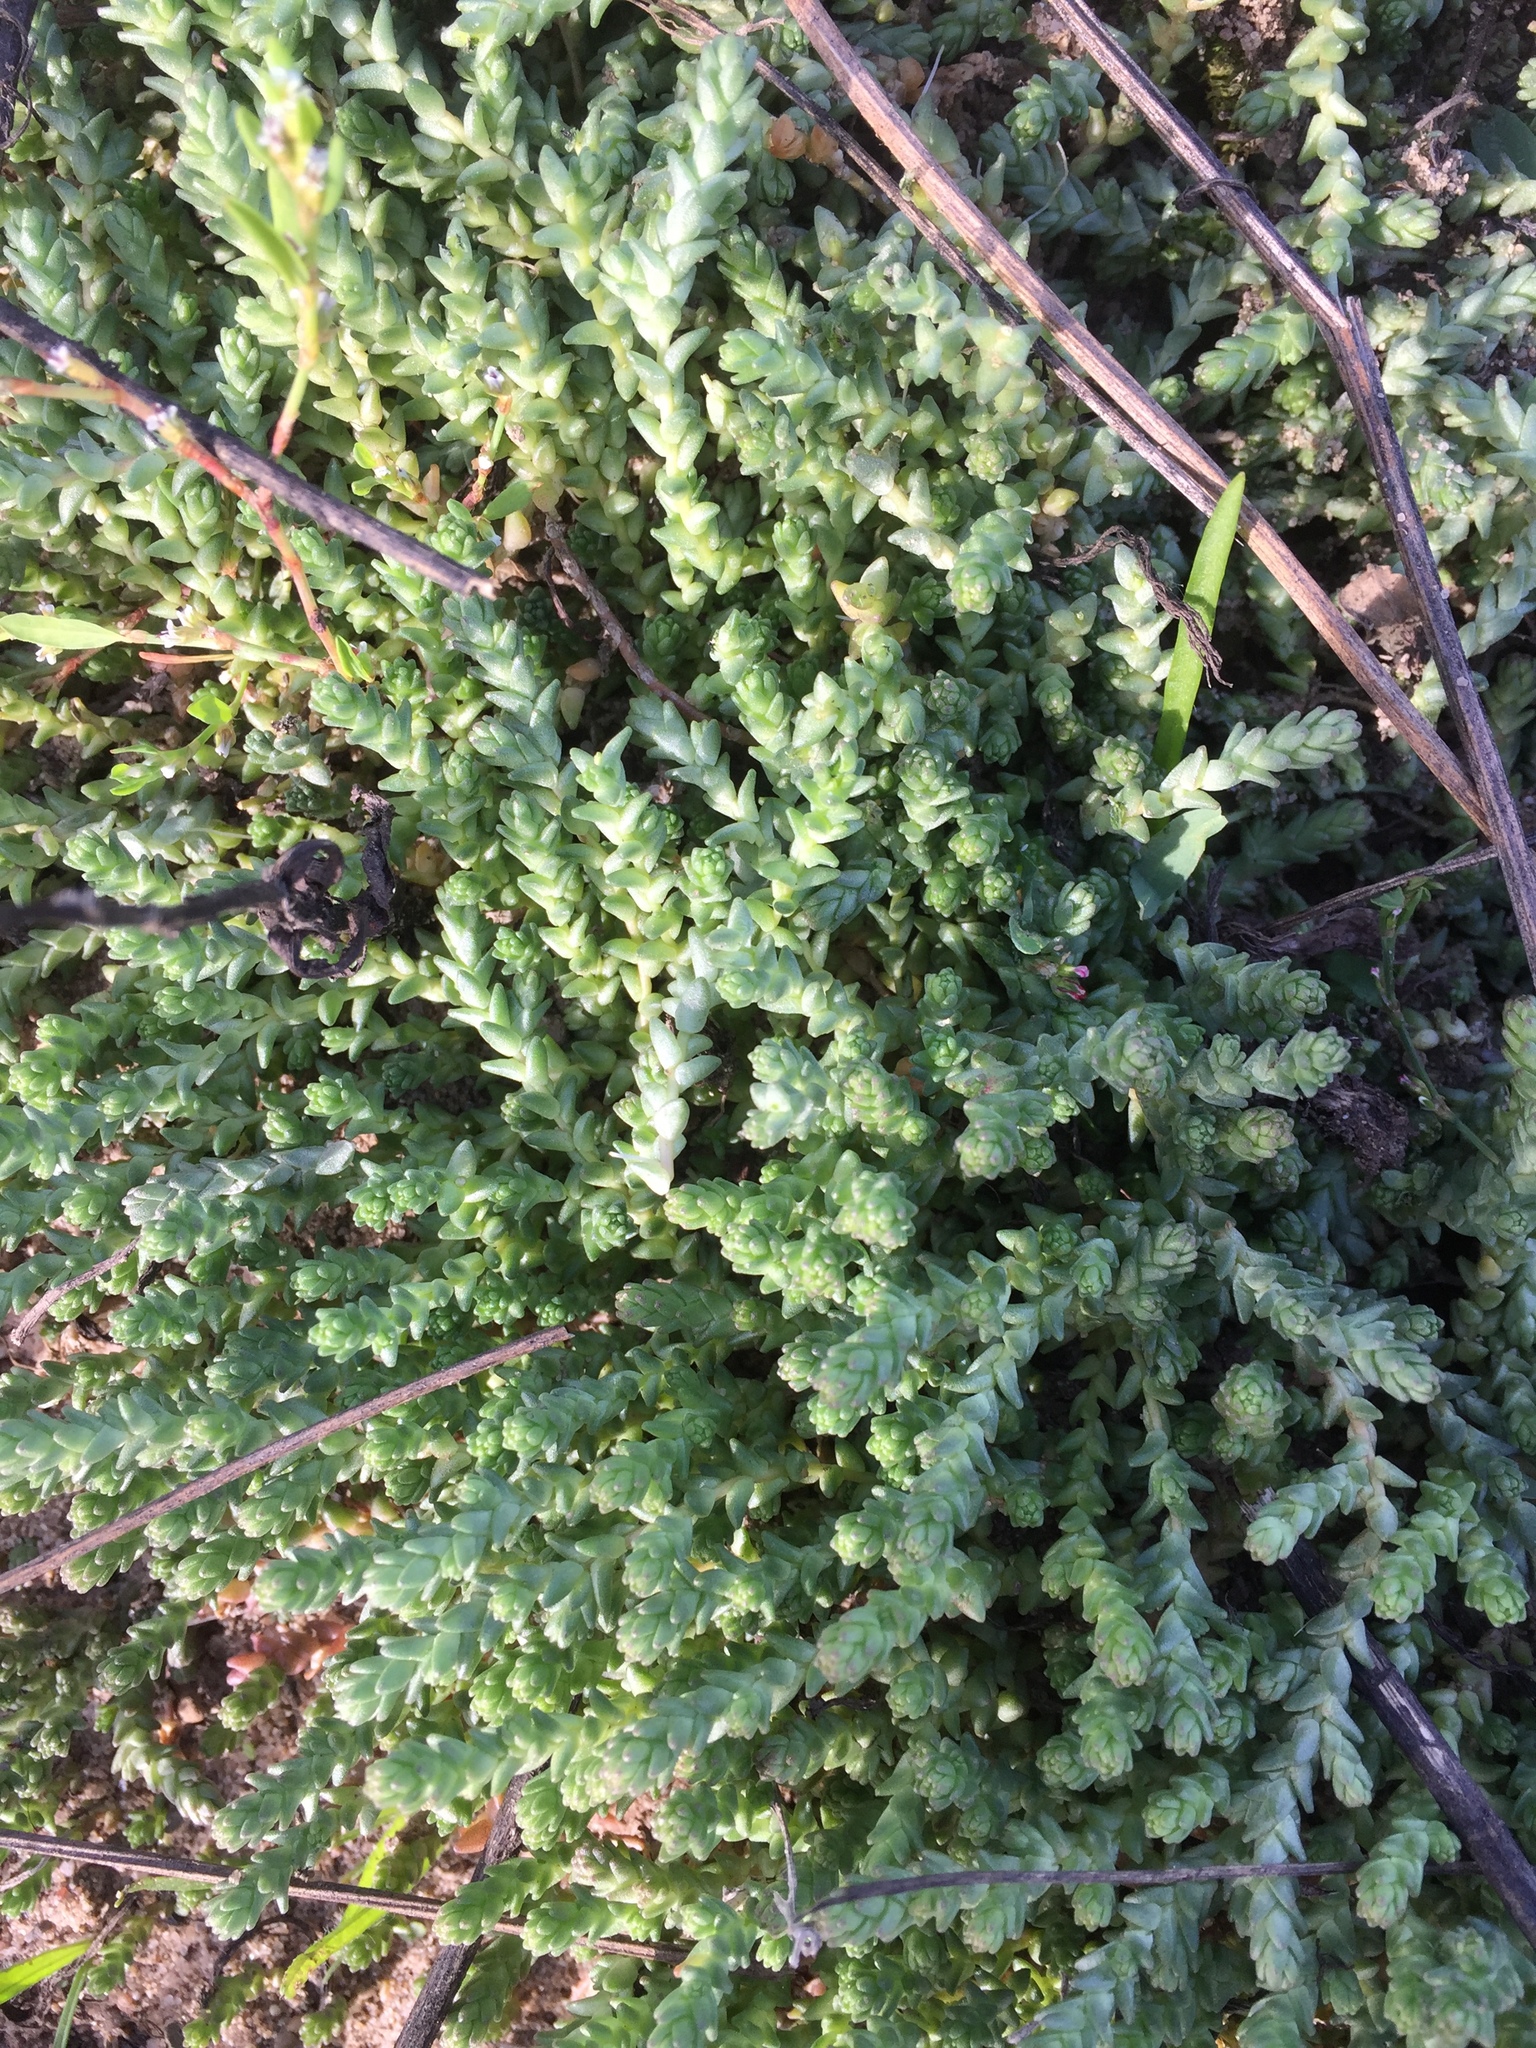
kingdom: Plantae
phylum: Tracheophyta
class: Magnoliopsida
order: Saxifragales
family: Crassulaceae
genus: Sedum
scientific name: Sedum acre
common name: Biting stonecrop
